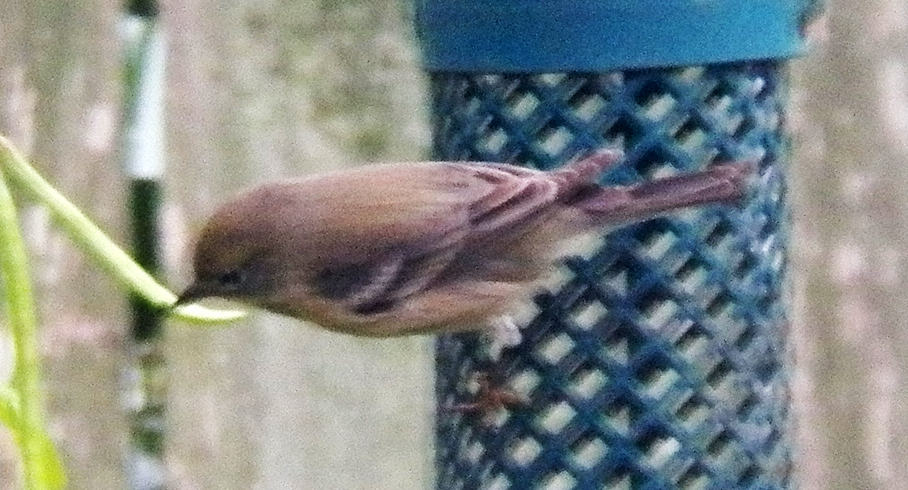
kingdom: Animalia
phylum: Chordata
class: Aves
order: Passeriformes
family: Parulidae
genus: Setophaga
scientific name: Setophaga pinus
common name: Pine warbler
